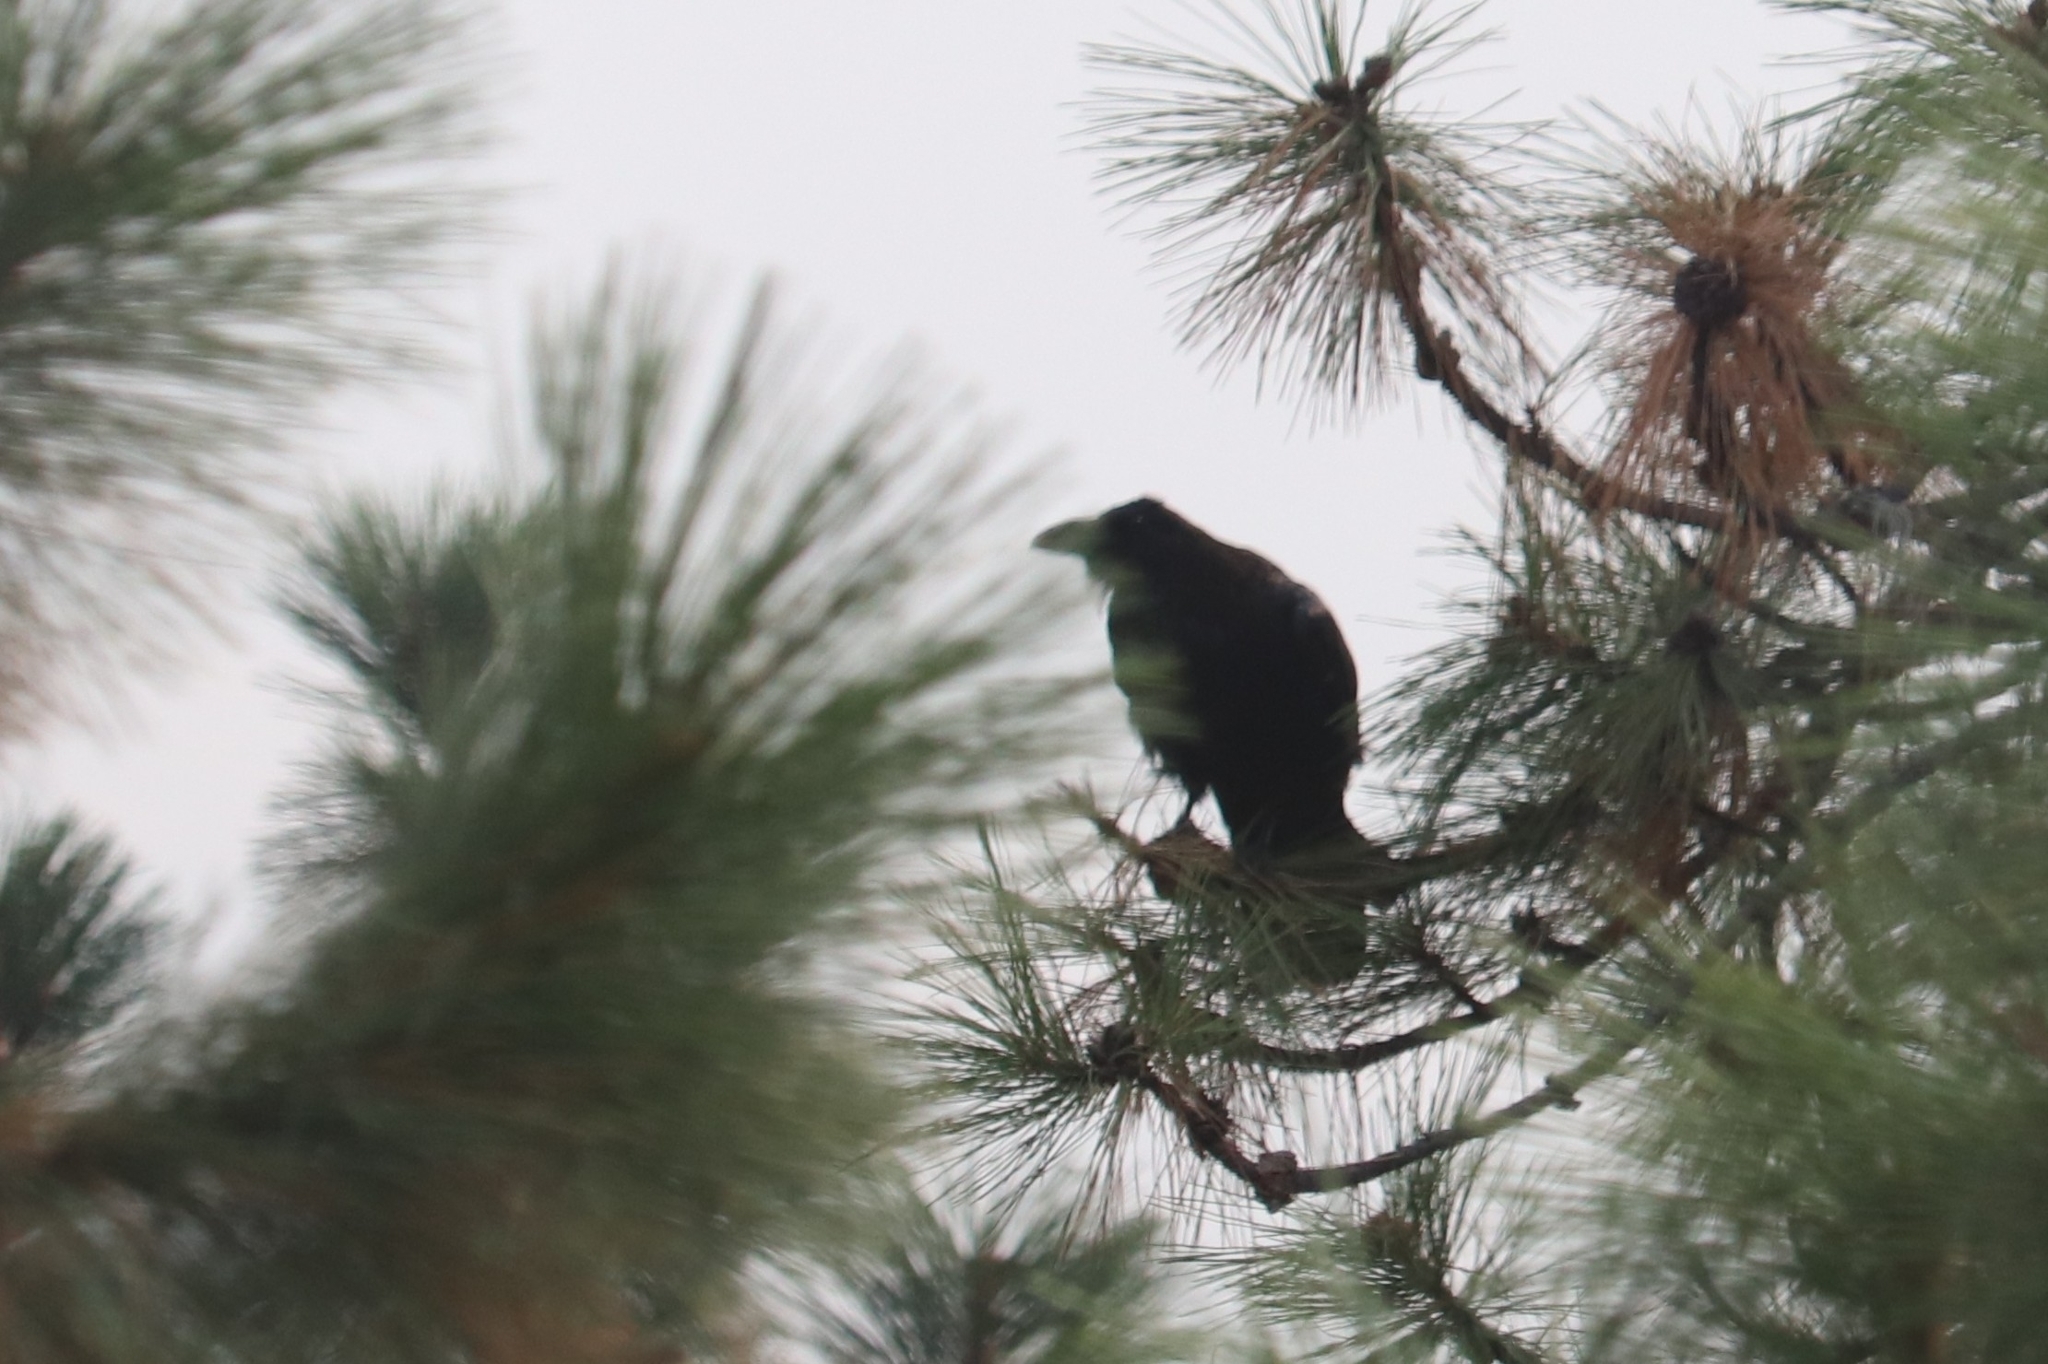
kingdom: Animalia
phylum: Chordata
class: Aves
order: Passeriformes
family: Corvidae
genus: Corvus
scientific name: Corvus corax
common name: Common raven
